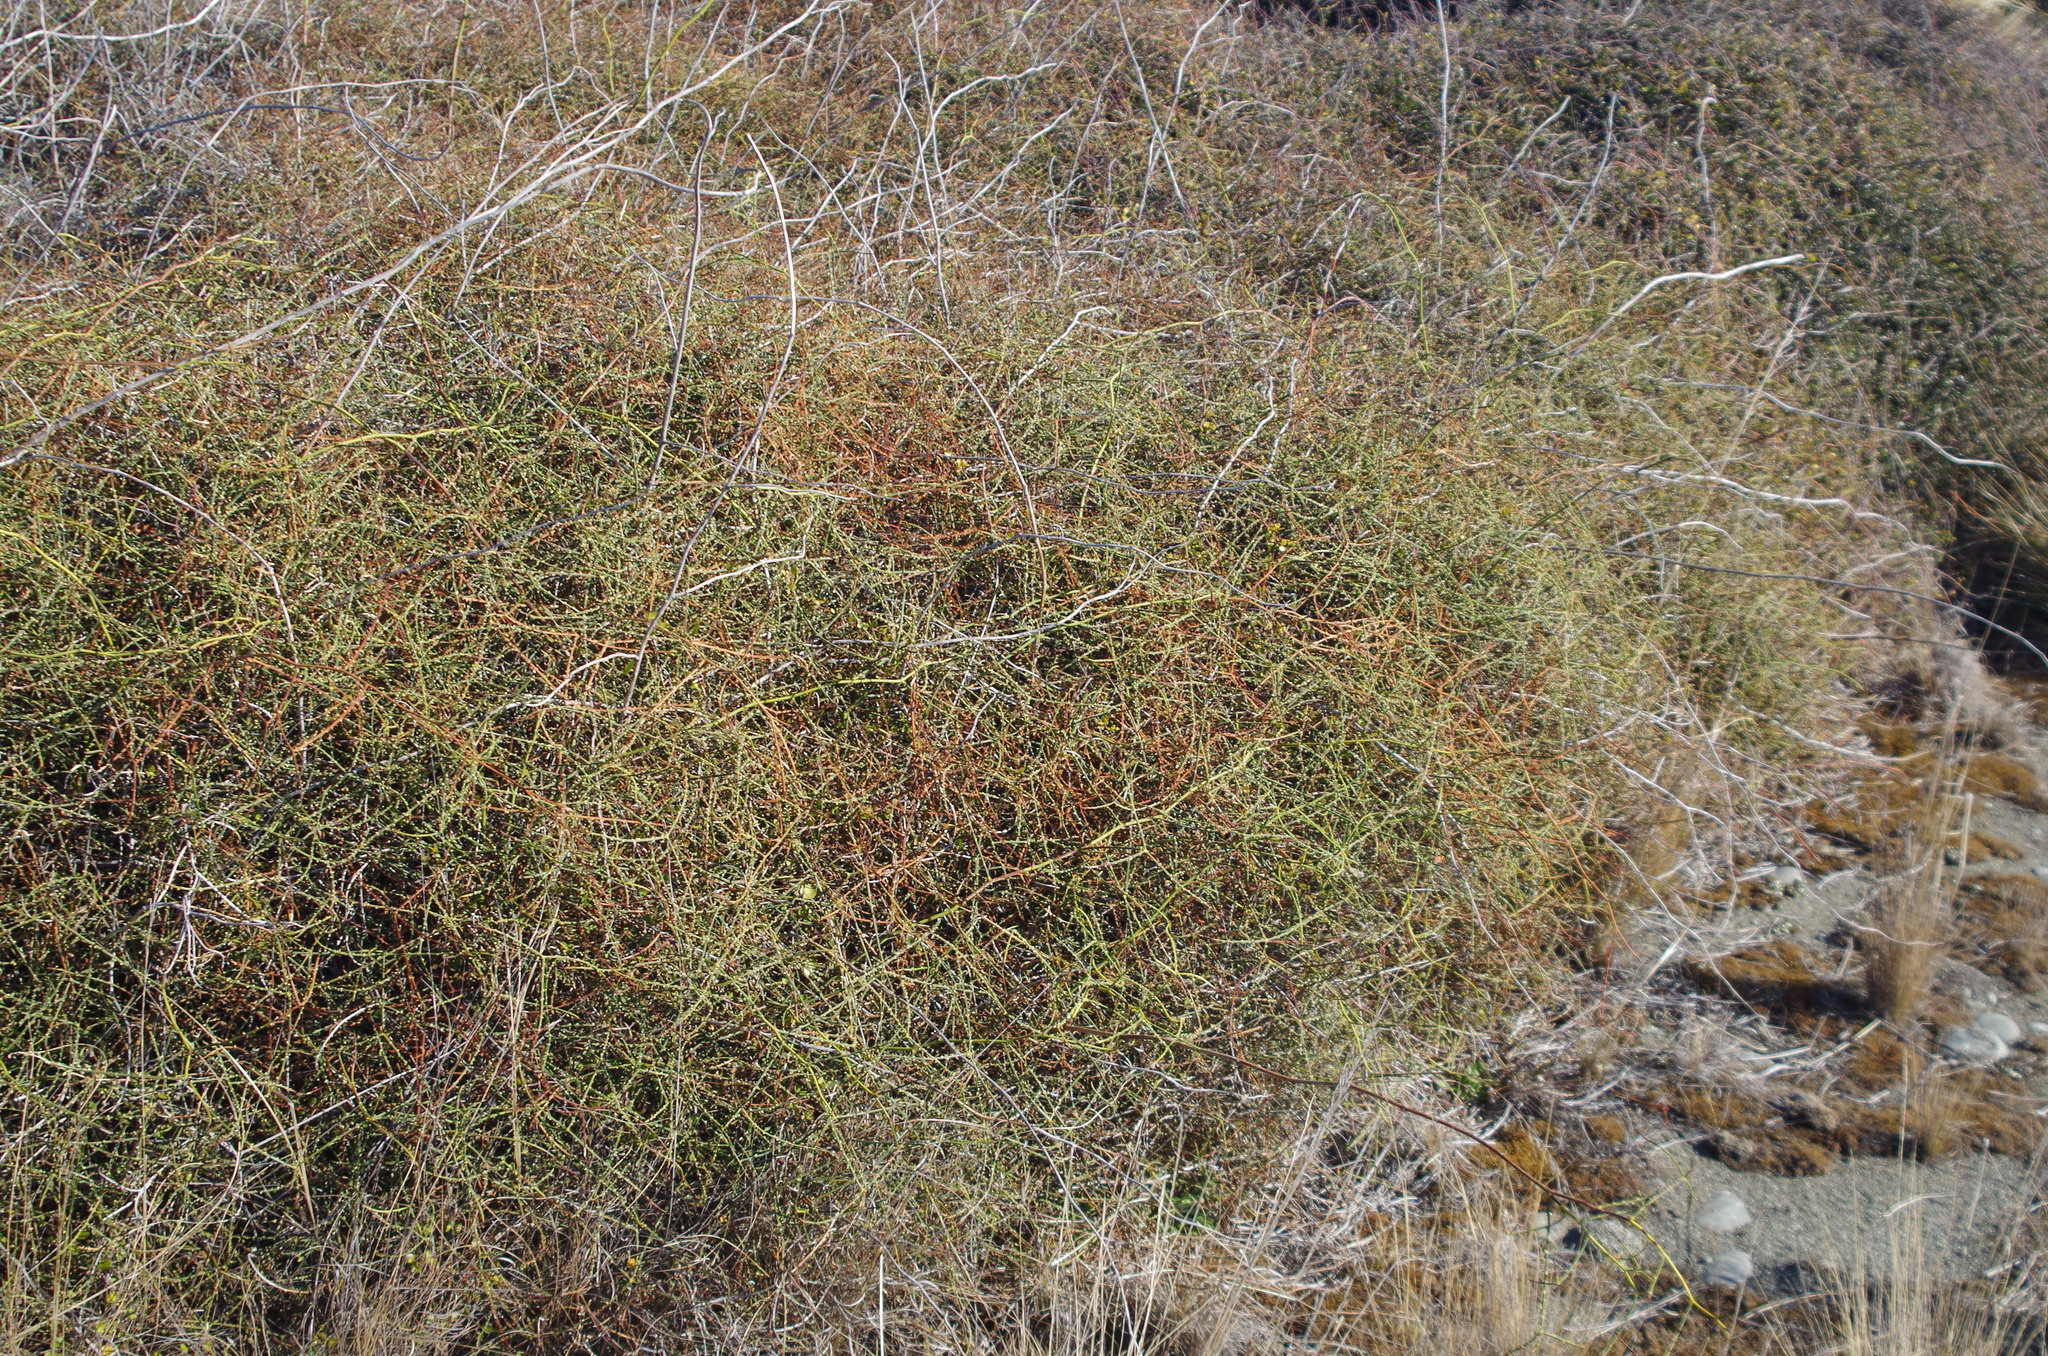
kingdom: Plantae
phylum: Tracheophyta
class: Magnoliopsida
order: Rosales
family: Rosaceae
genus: Rubus
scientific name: Rubus squarrosus
